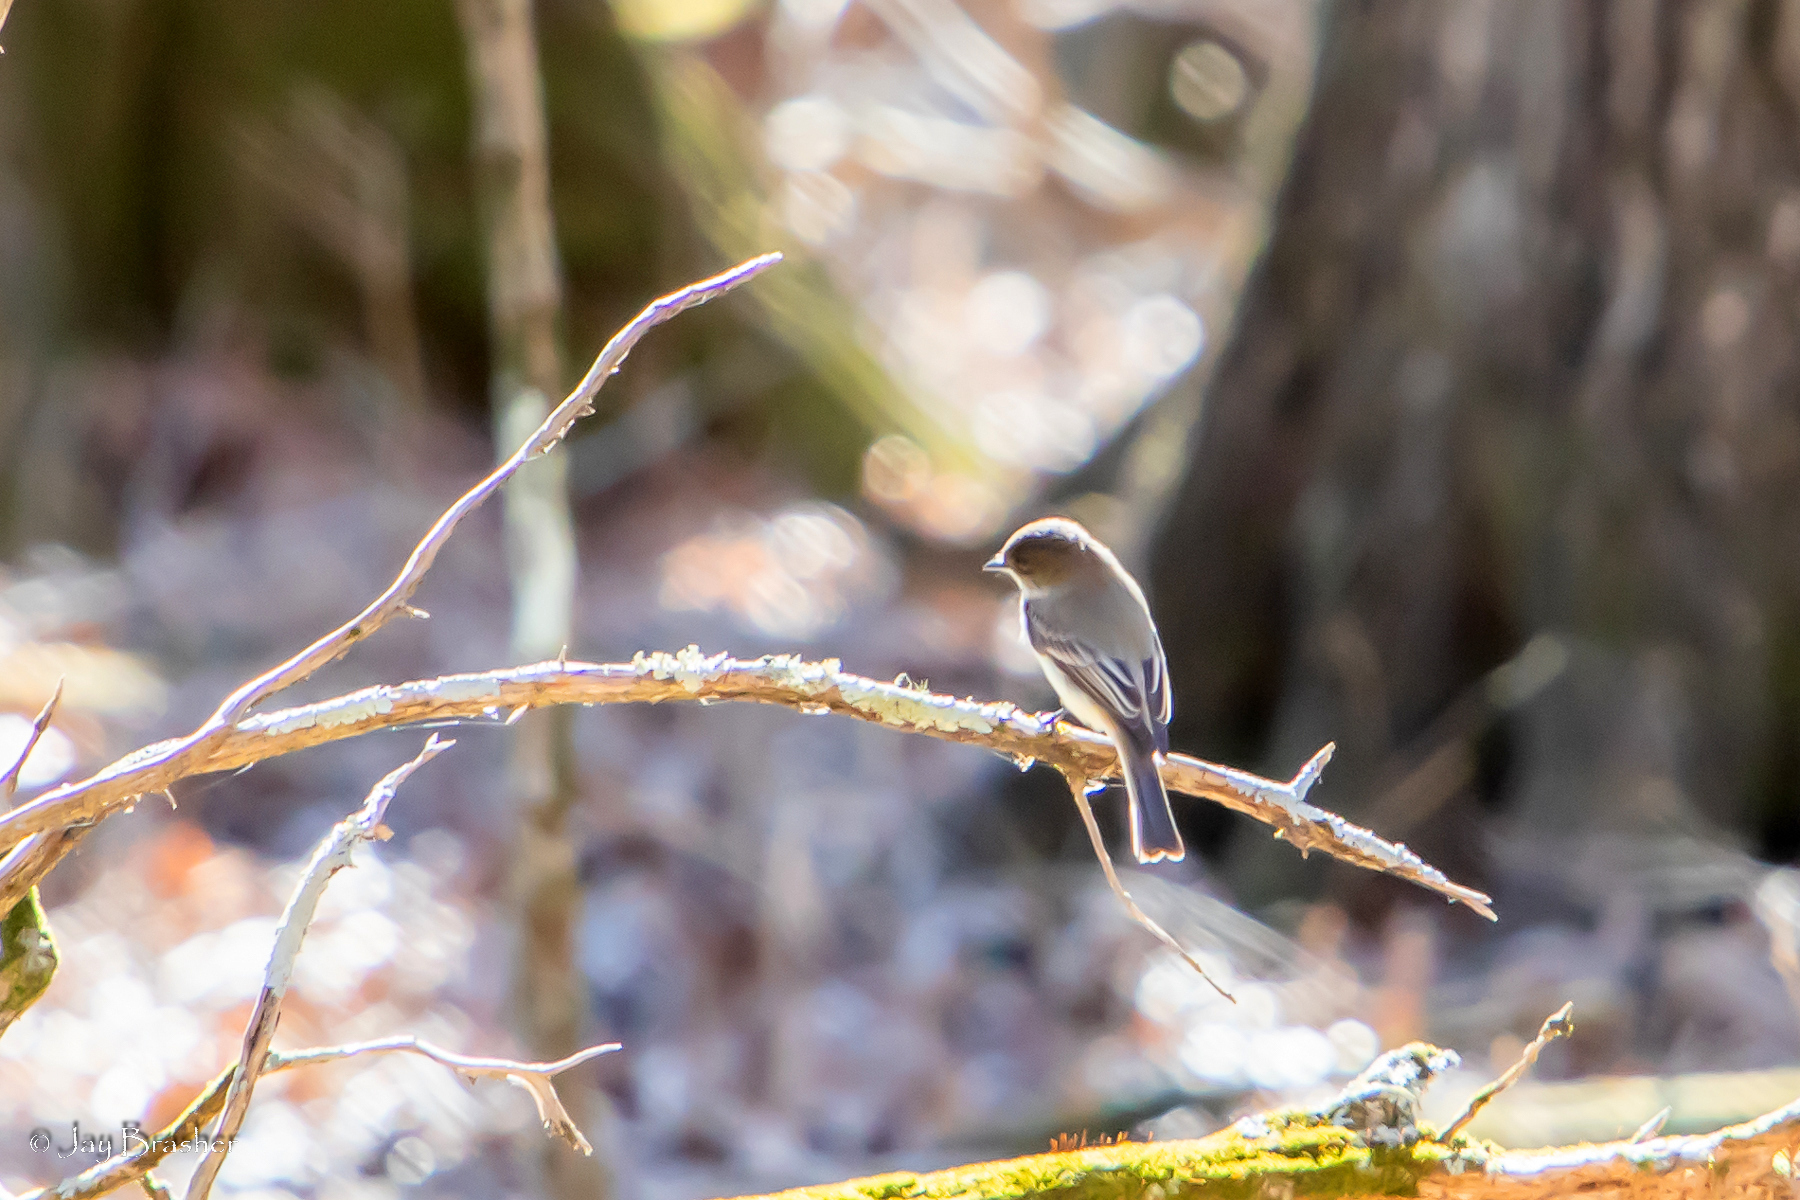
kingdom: Animalia
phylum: Chordata
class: Aves
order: Passeriformes
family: Tyrannidae
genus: Sayornis
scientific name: Sayornis phoebe
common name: Eastern phoebe
